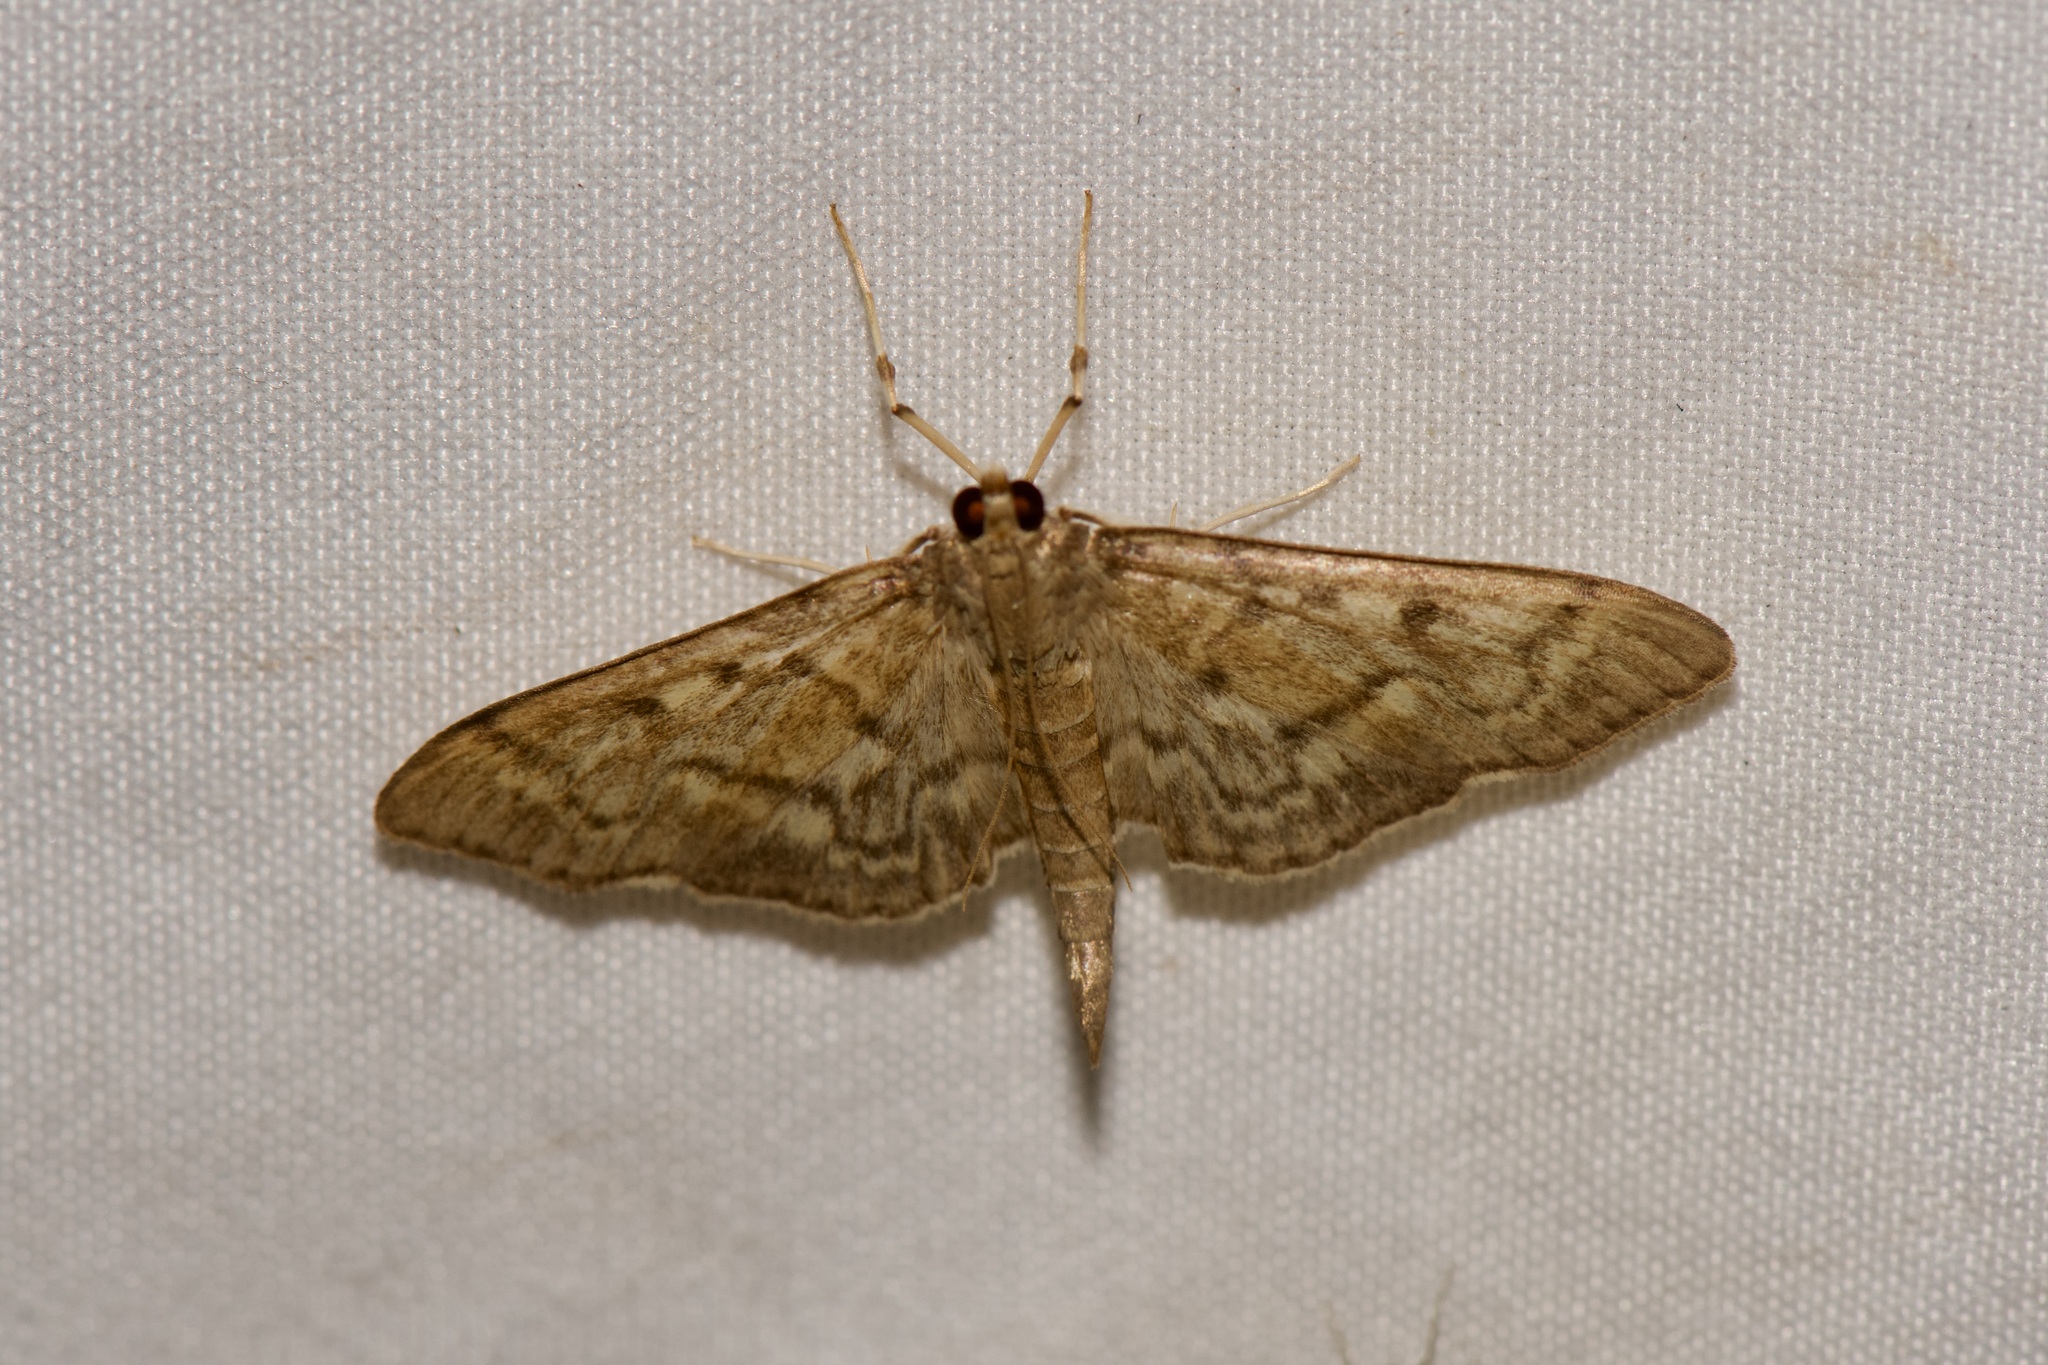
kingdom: Animalia
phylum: Arthropoda
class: Insecta
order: Lepidoptera
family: Crambidae
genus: Herpetogramma
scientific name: Herpetogramma aeglealis
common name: Serpentine webworm moth
